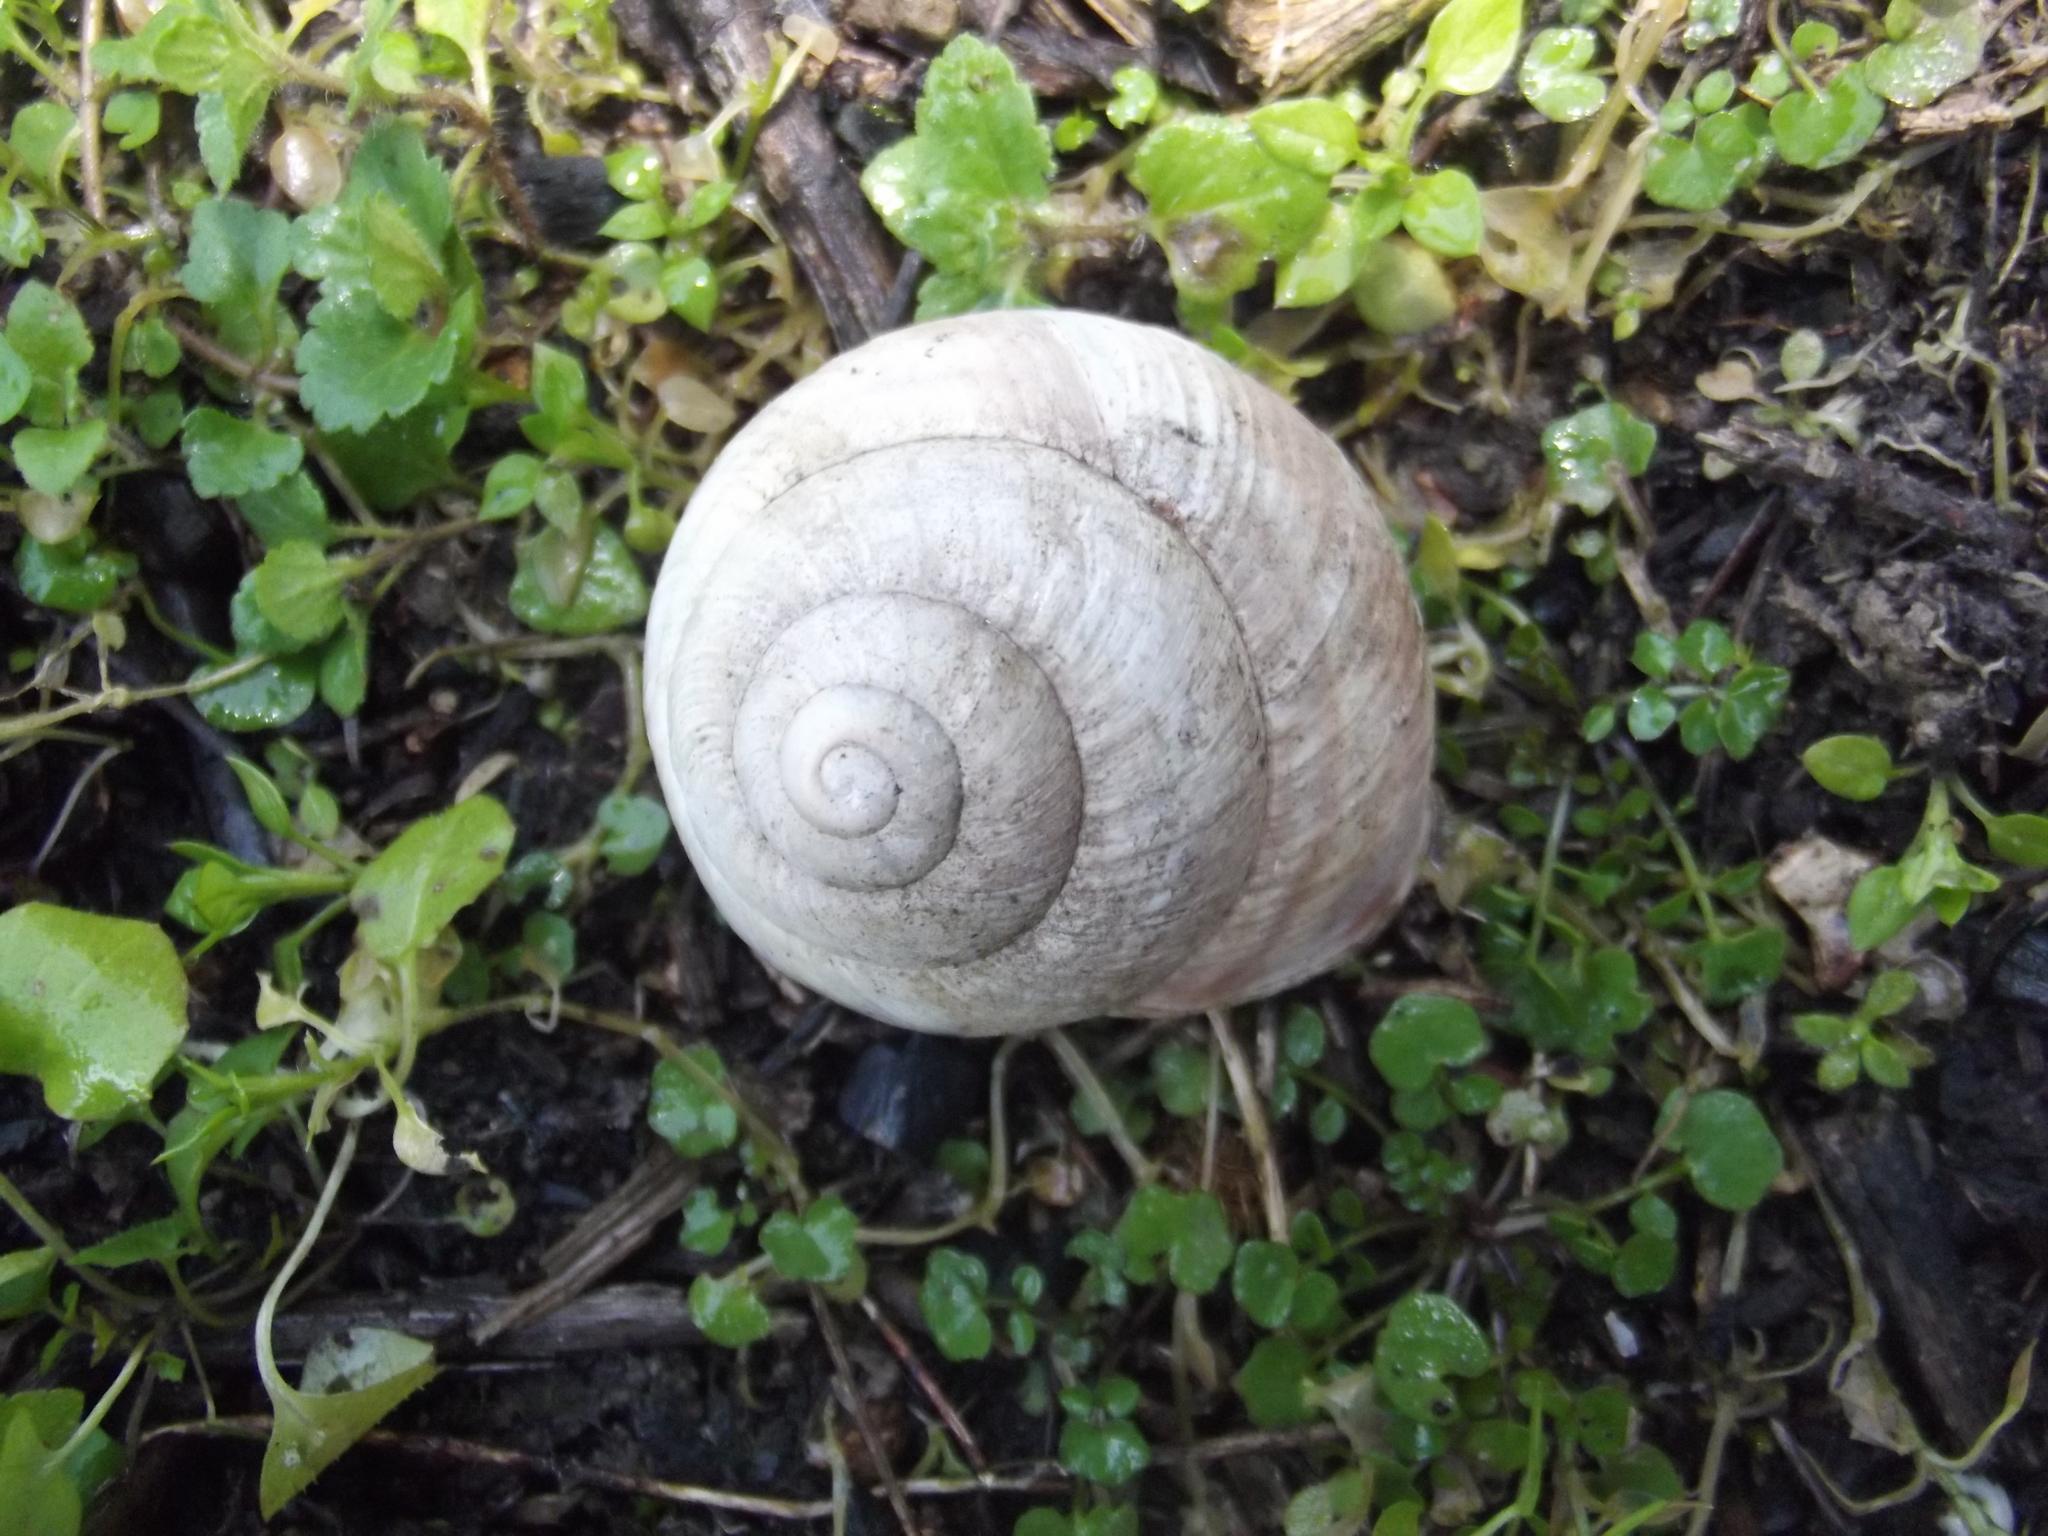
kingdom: Animalia
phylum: Mollusca
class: Gastropoda
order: Stylommatophora
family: Helicidae
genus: Helix
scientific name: Helix straminea
